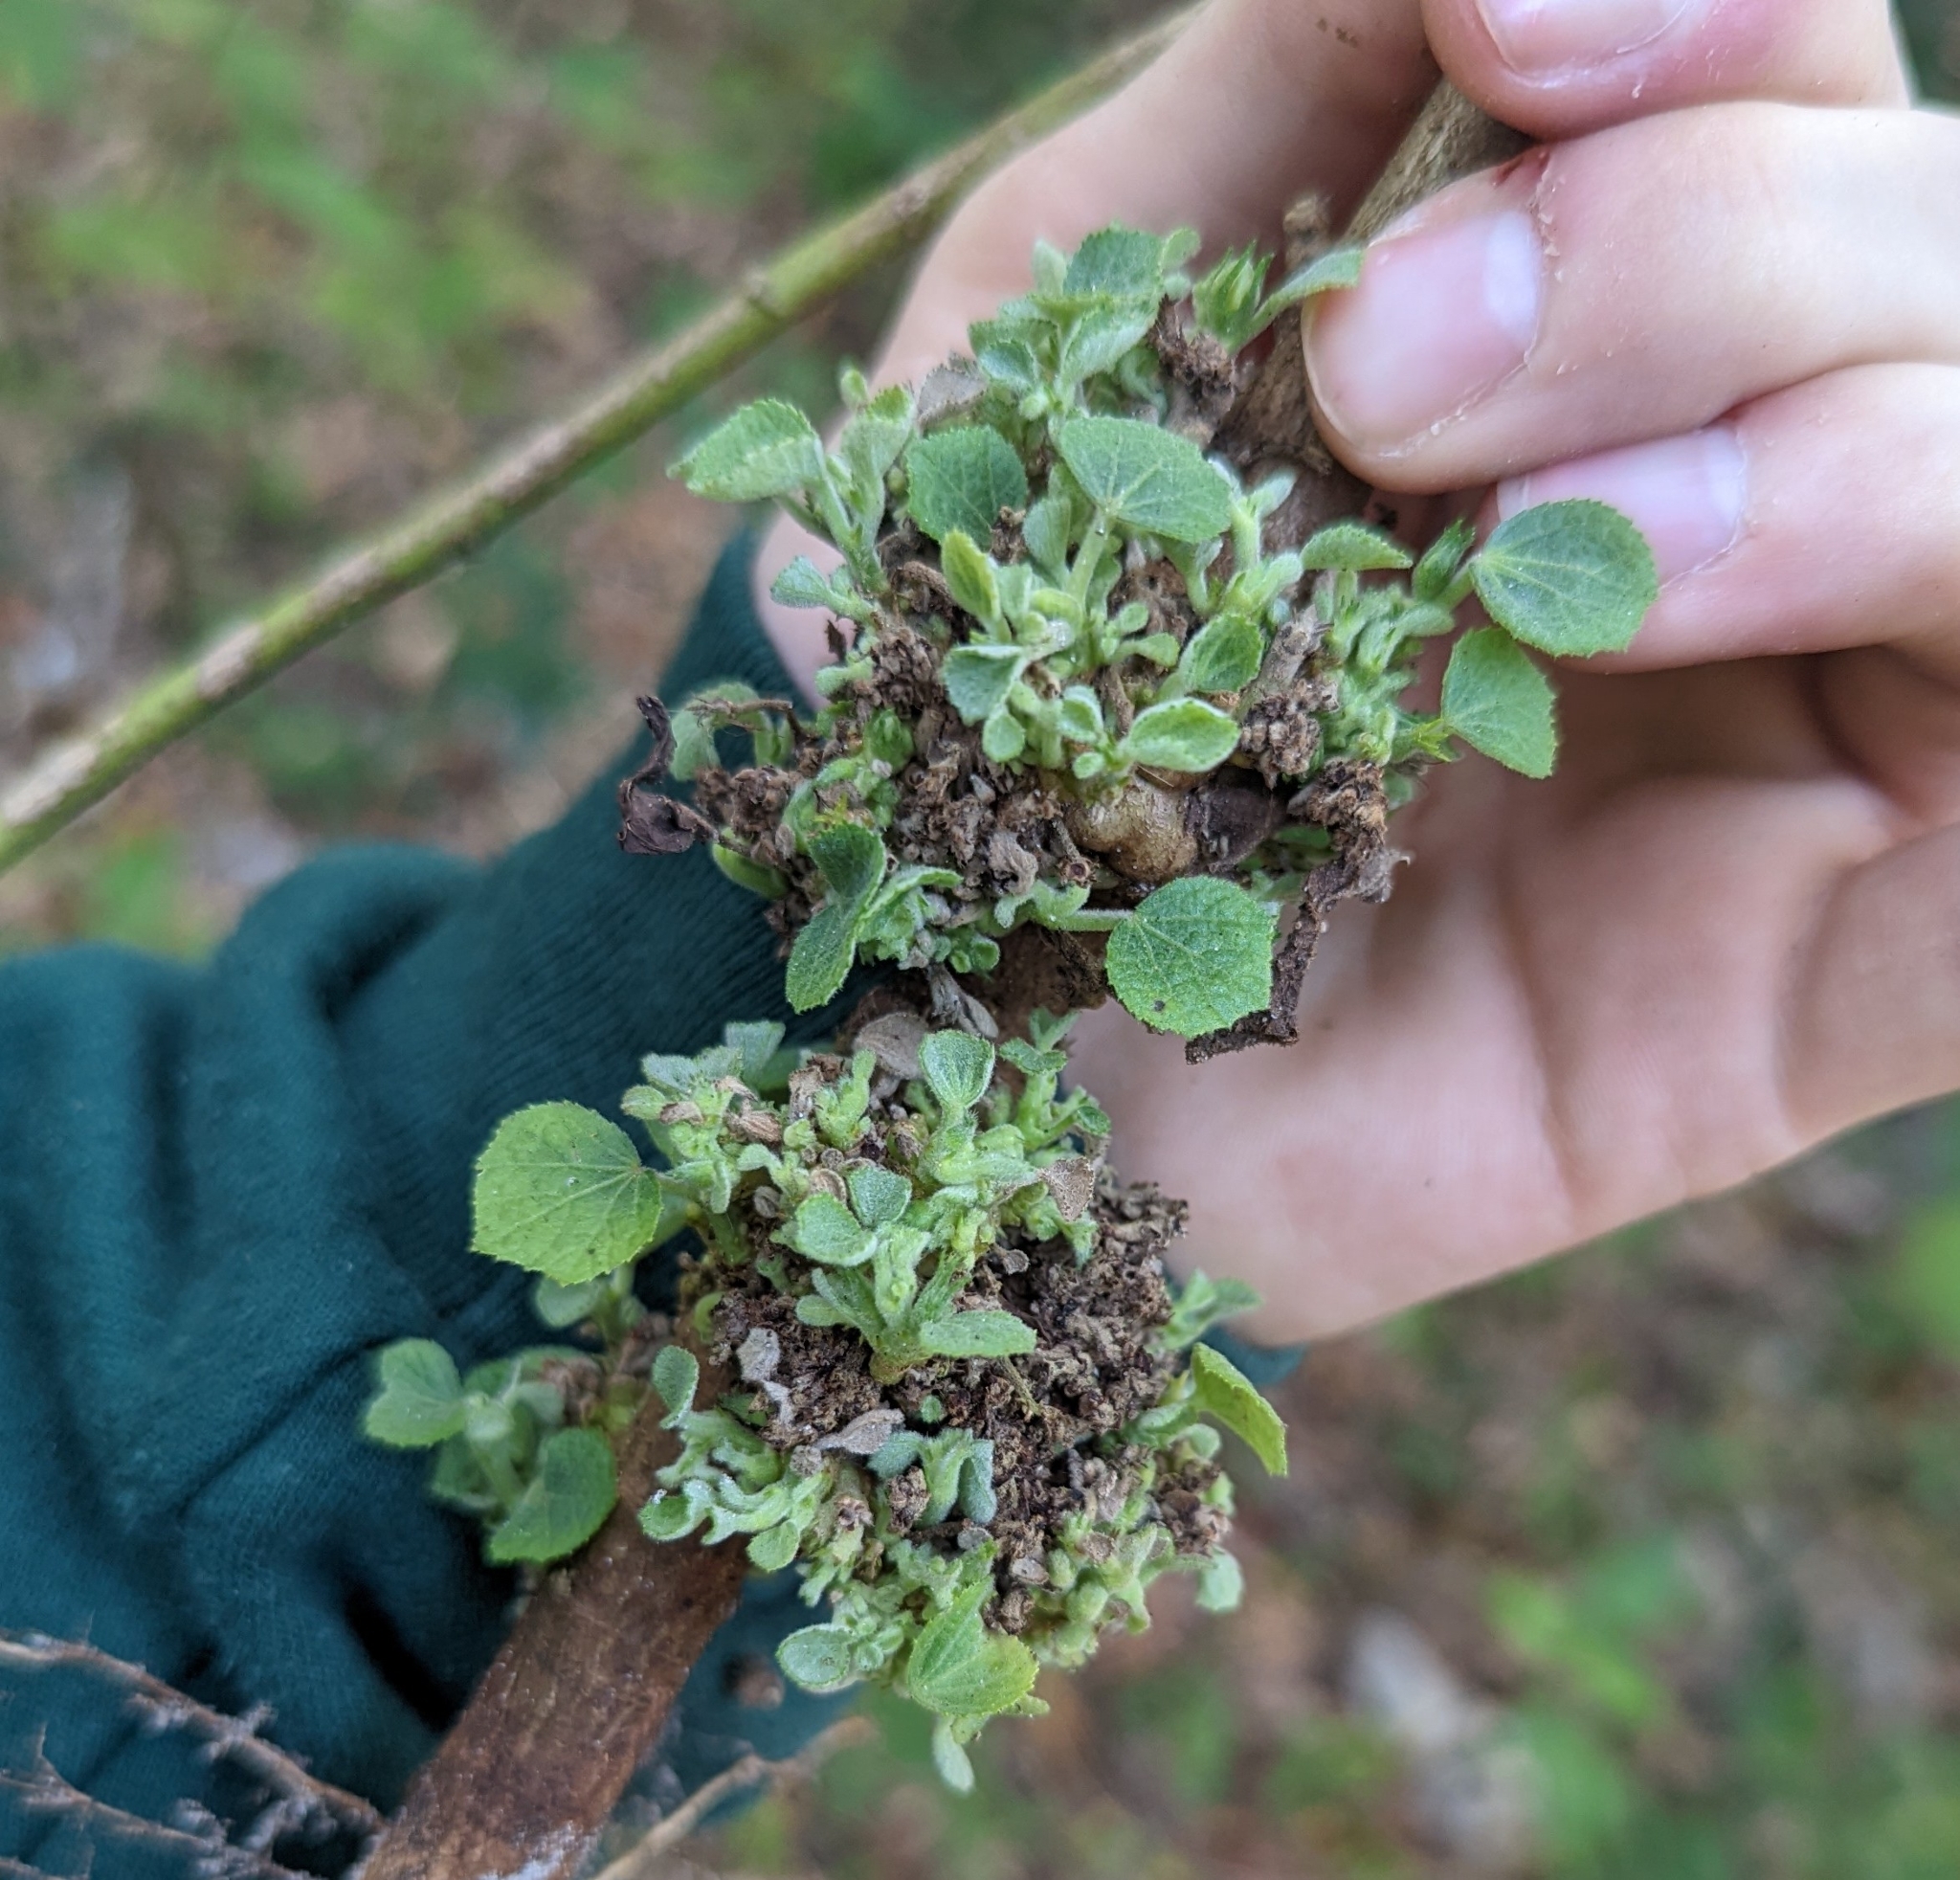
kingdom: Plantae
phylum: Tracheophyta
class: Magnoliopsida
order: Malvales
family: Malvaceae
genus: Urena
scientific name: Urena lobata
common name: Caesarweed
